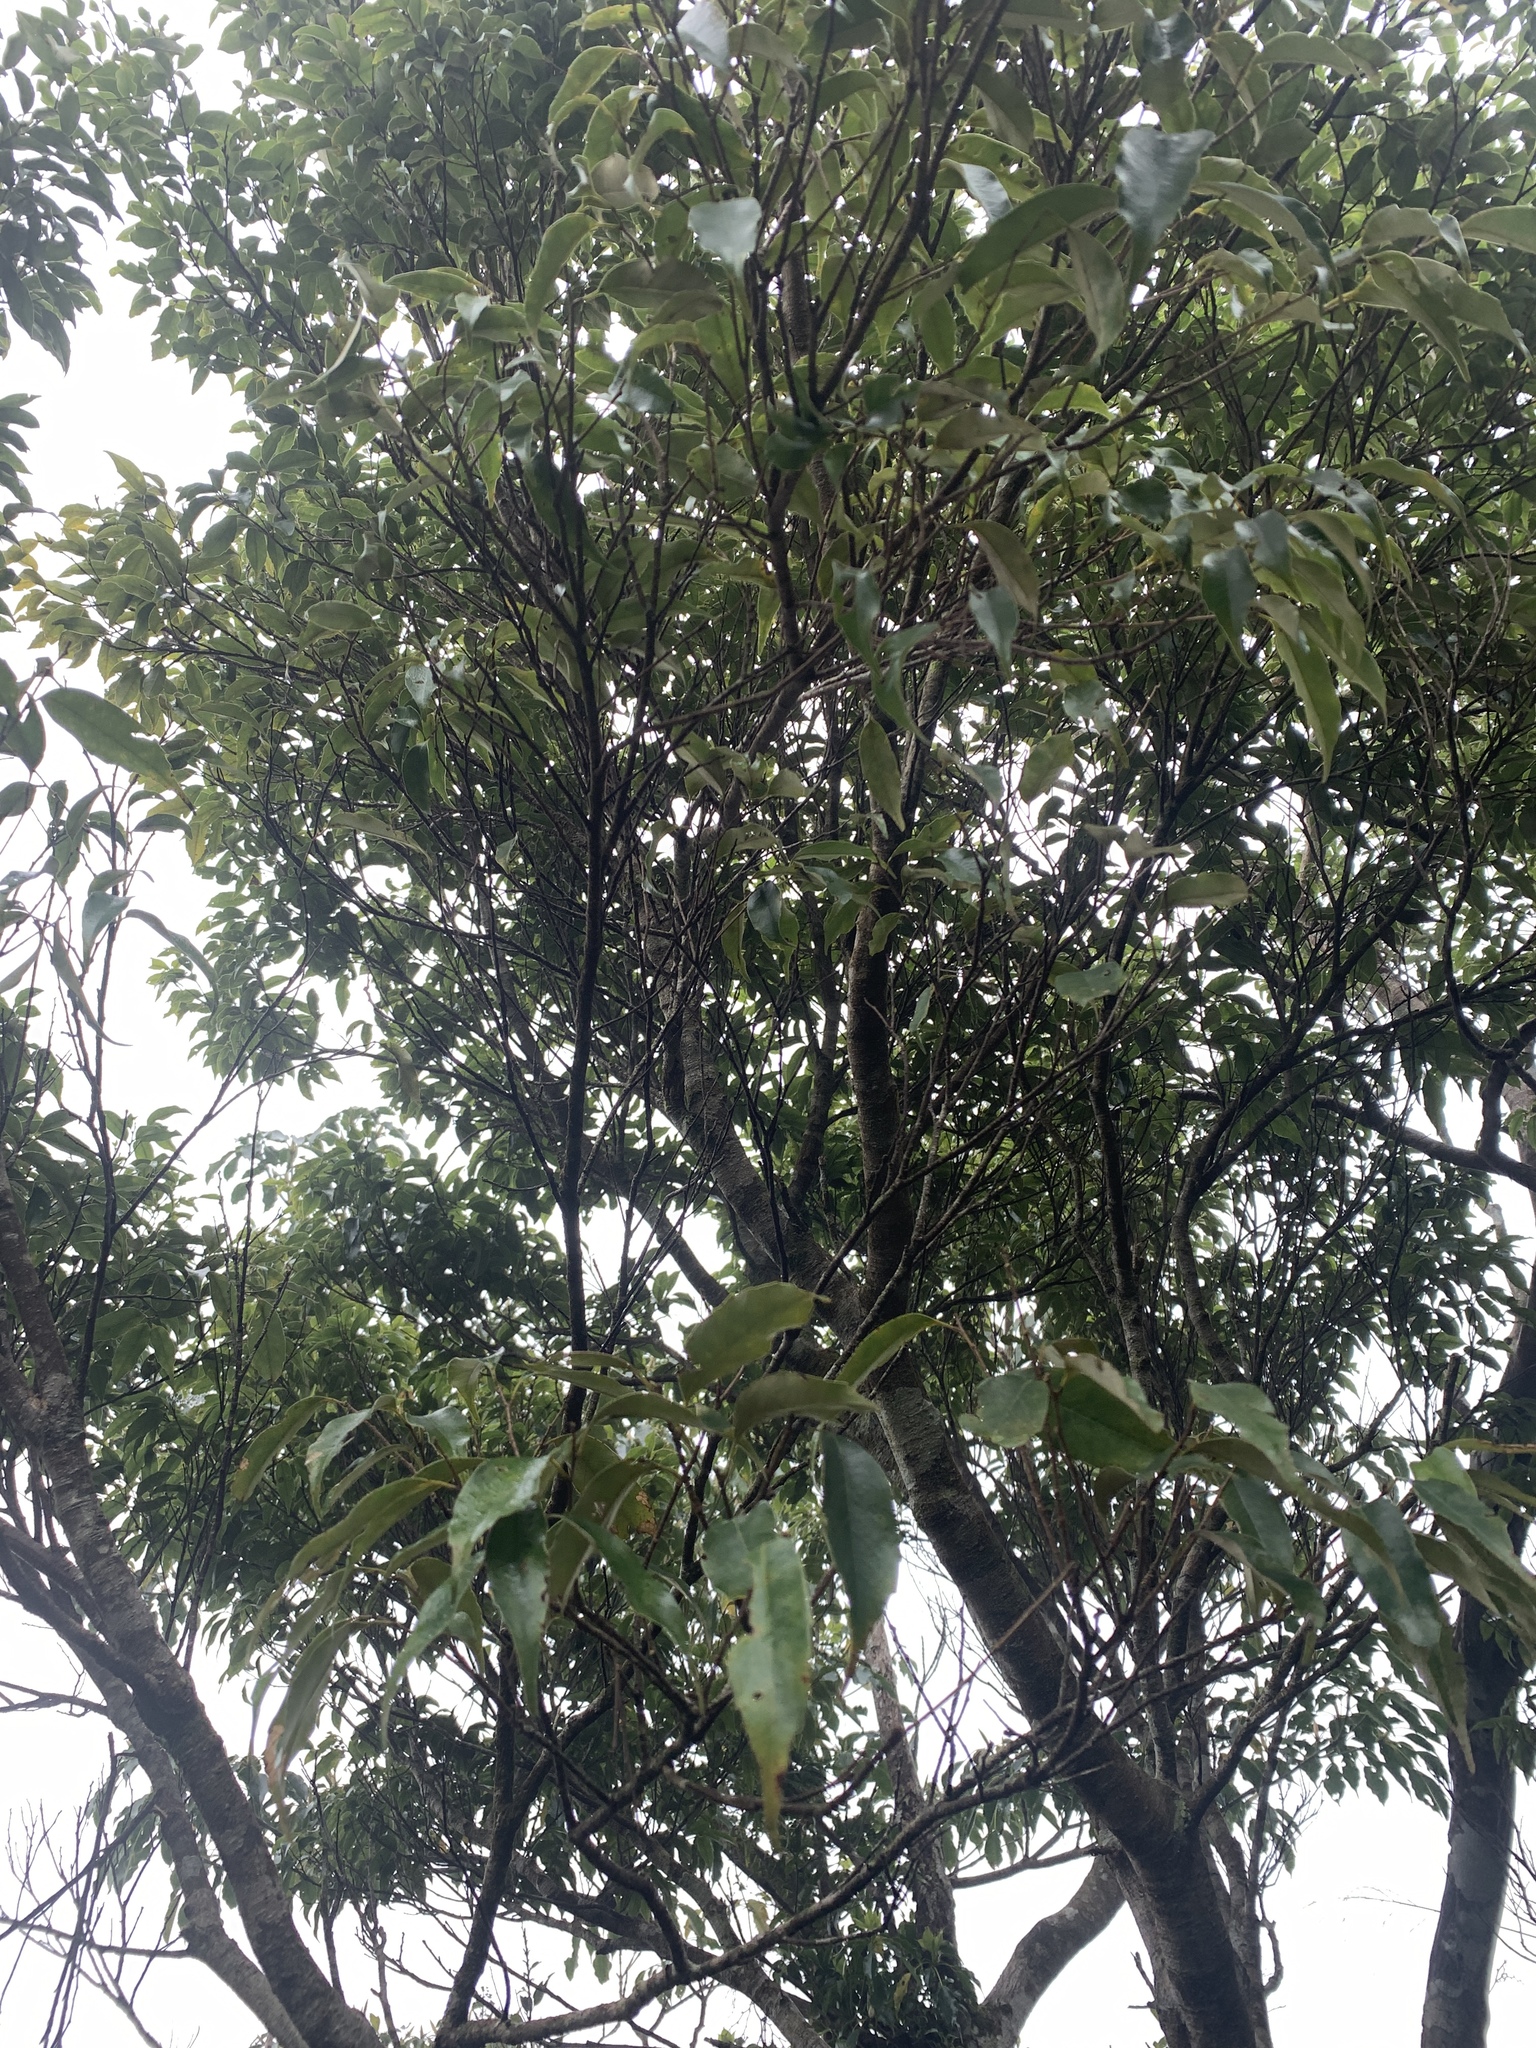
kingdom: Plantae
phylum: Tracheophyta
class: Magnoliopsida
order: Fagales
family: Fagaceae
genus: Castanopsis
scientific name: Castanopsis carlesii
